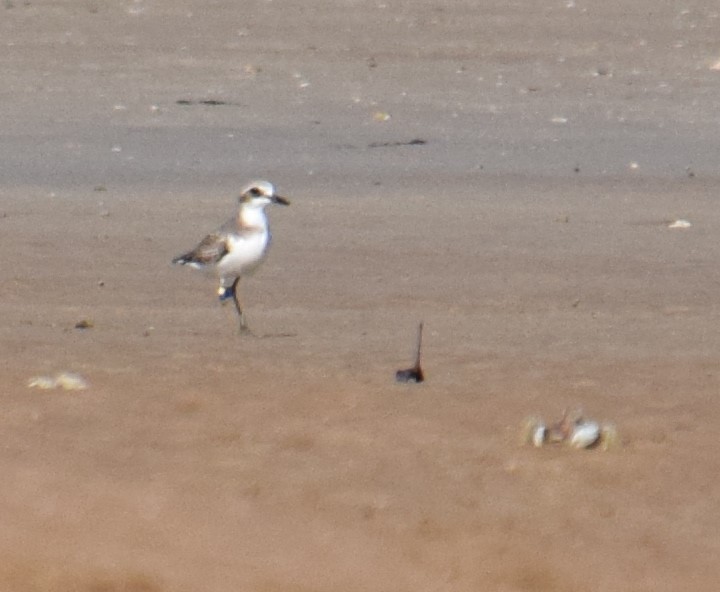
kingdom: Animalia
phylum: Chordata
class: Aves
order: Charadriiformes
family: Charadriidae
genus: Charadrius
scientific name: Charadrius leschenaultii
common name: Greater sand plover
